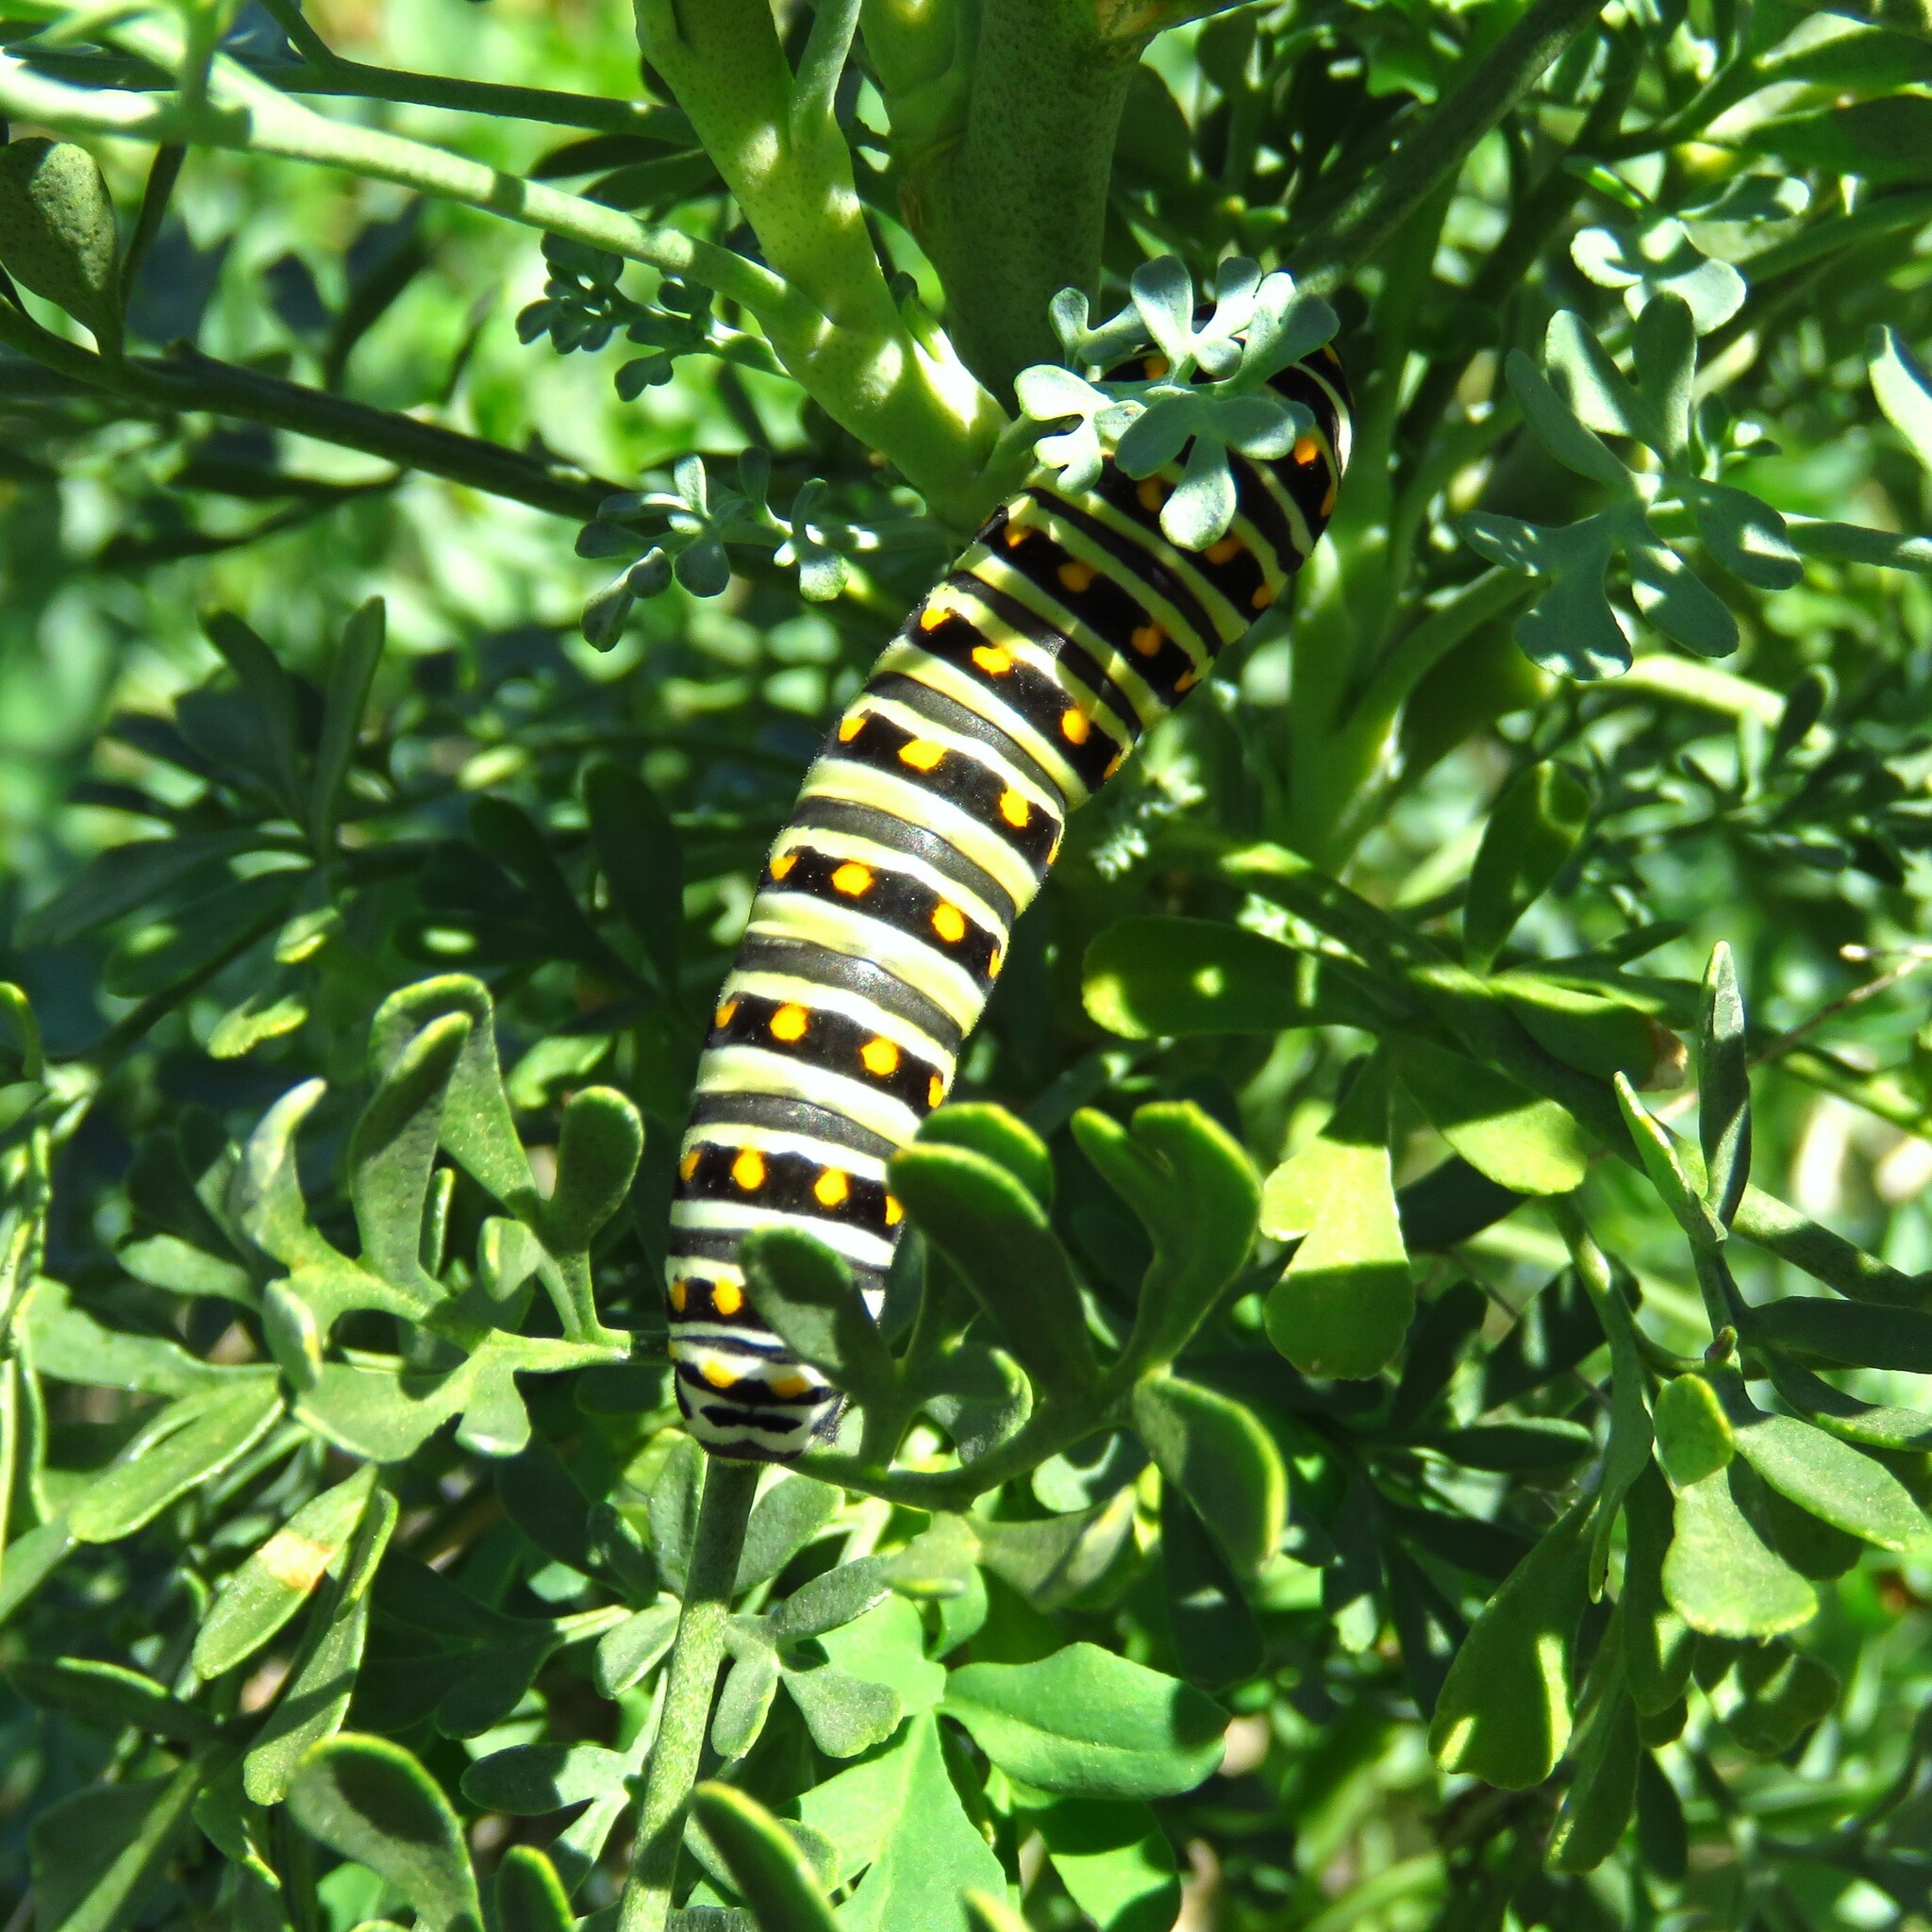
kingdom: Animalia
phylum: Arthropoda
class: Insecta
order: Lepidoptera
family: Papilionidae
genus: Papilio
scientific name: Papilio polyxenes
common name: Black swallowtail
